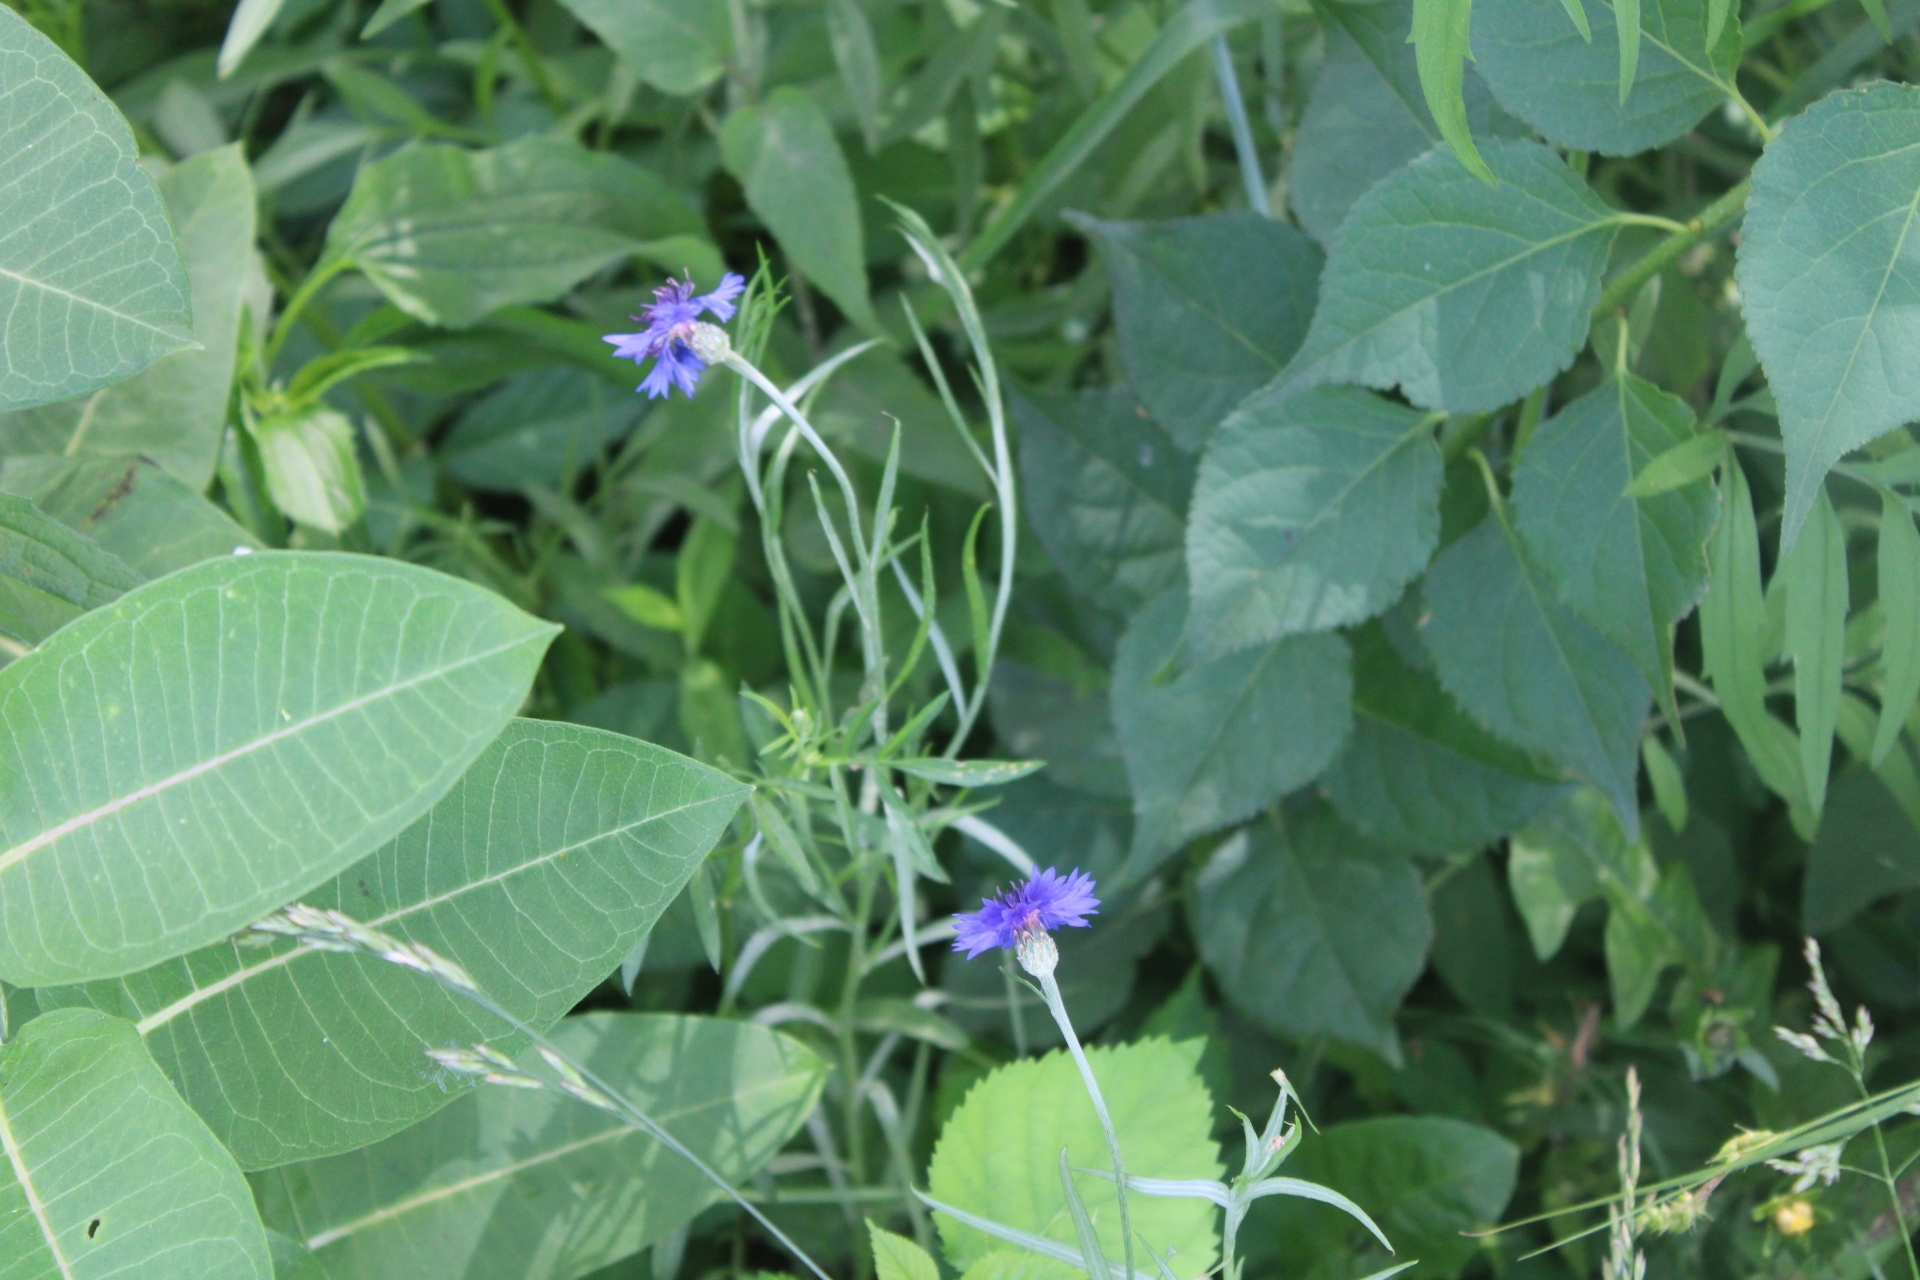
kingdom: Plantae
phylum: Tracheophyta
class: Magnoliopsida
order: Asterales
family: Asteraceae
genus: Centaurea
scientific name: Centaurea cyanus
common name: Cornflower
